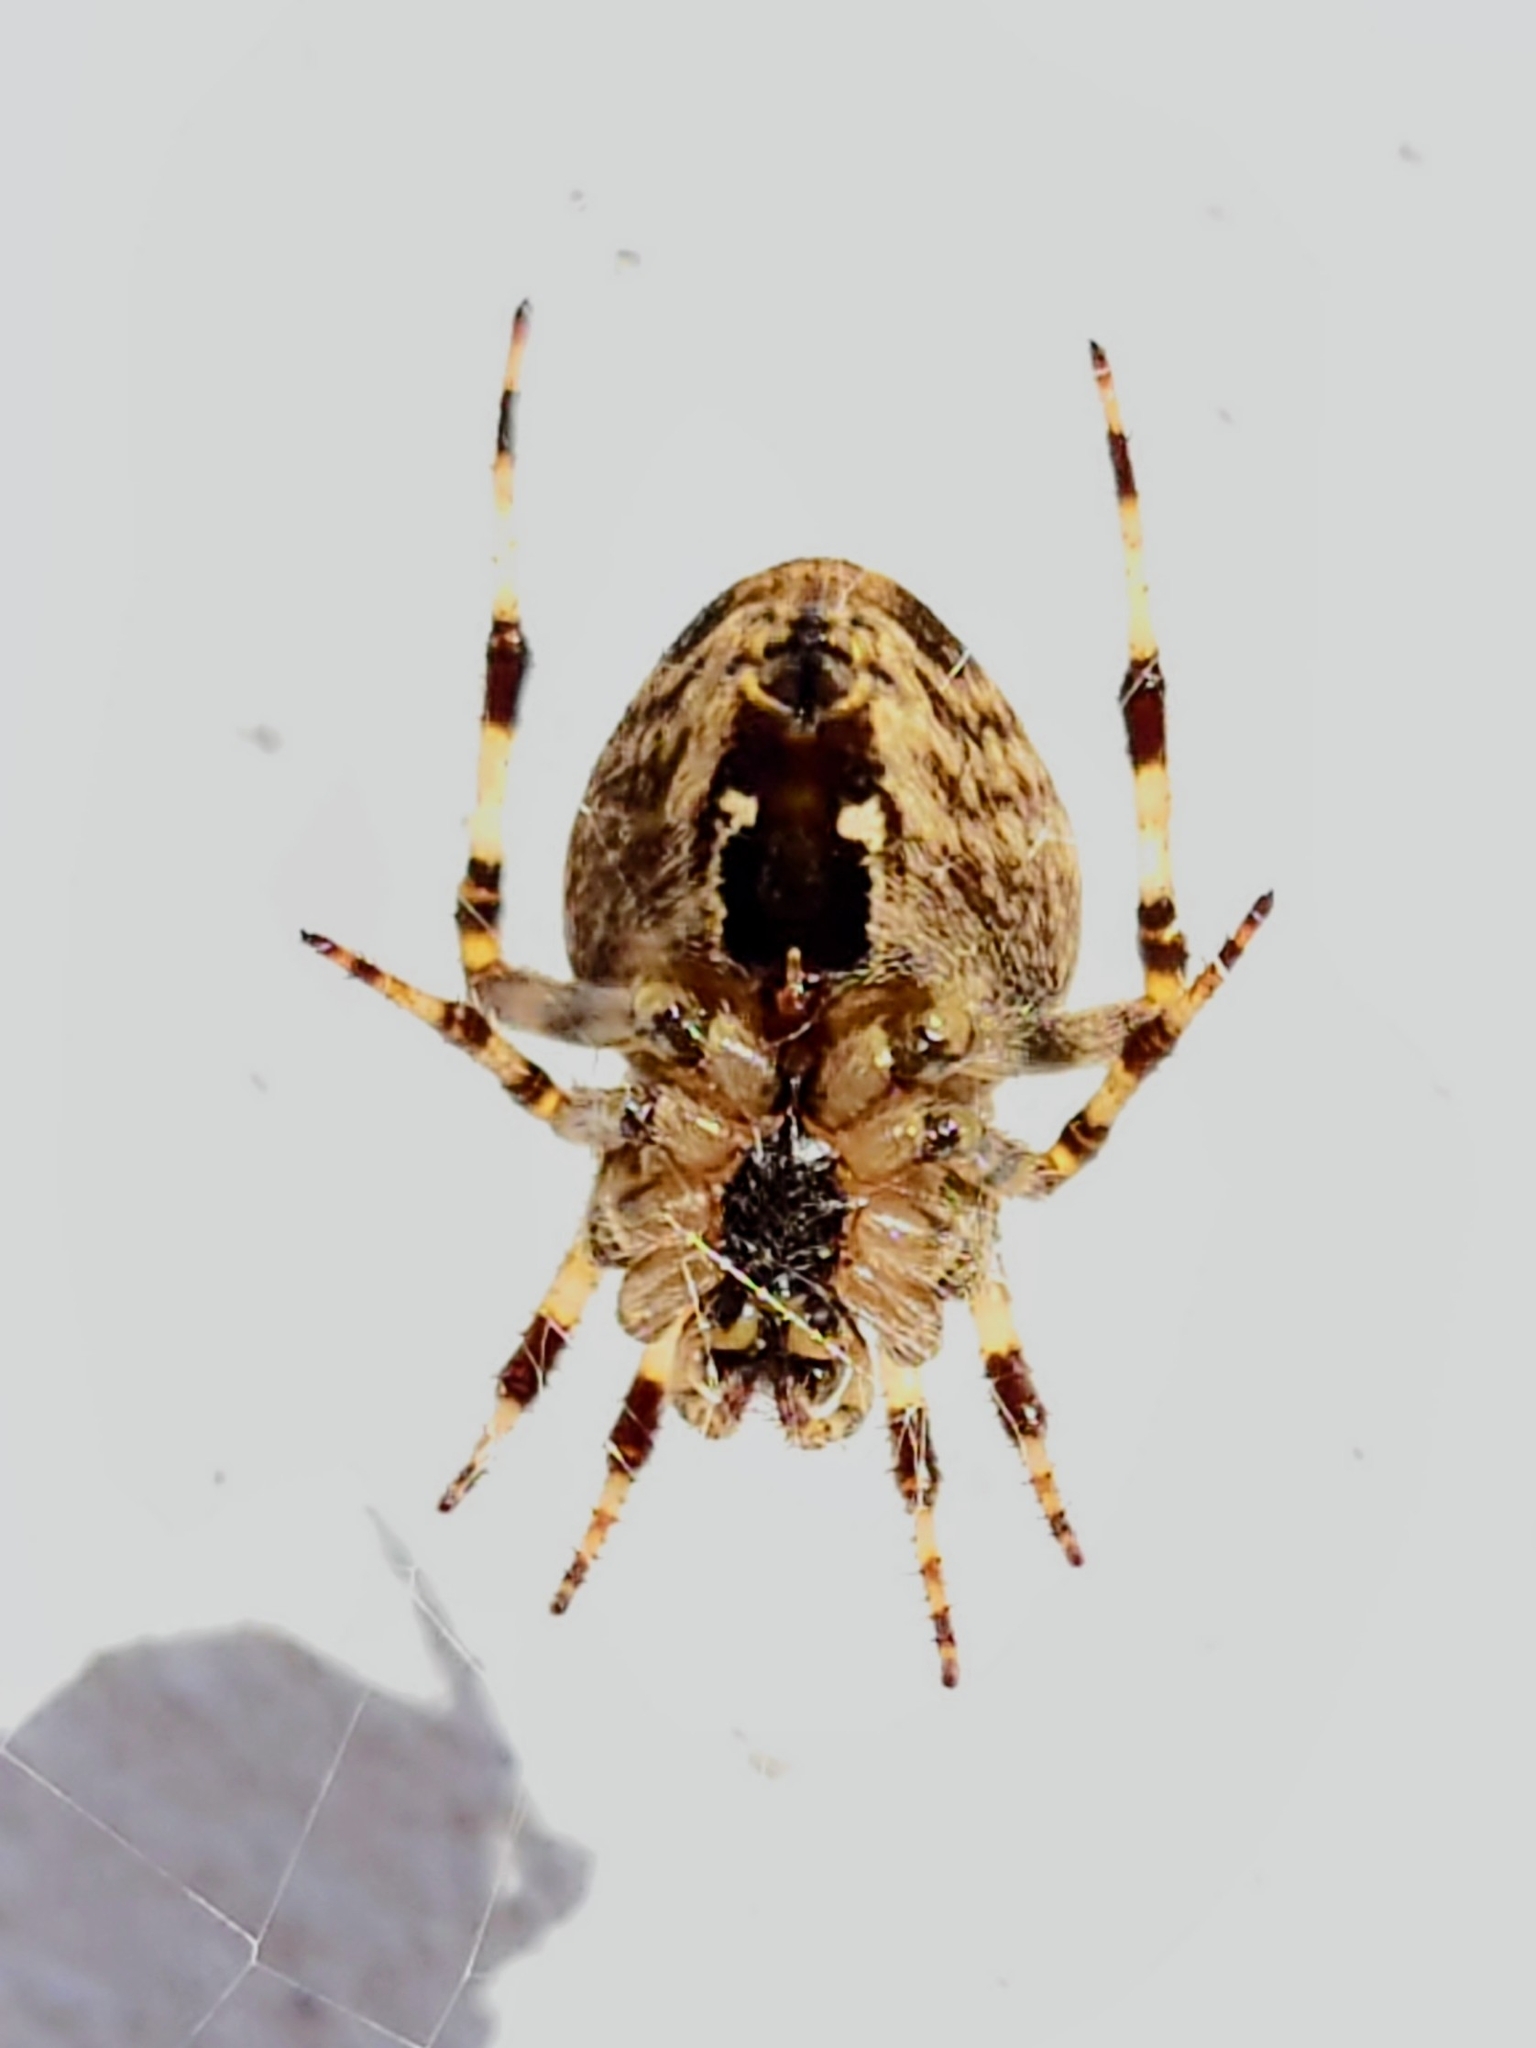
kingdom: Animalia
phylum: Arthropoda
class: Arachnida
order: Araneae
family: Araneidae
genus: Araneus
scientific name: Araneus diadematus
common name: Cross orbweaver
